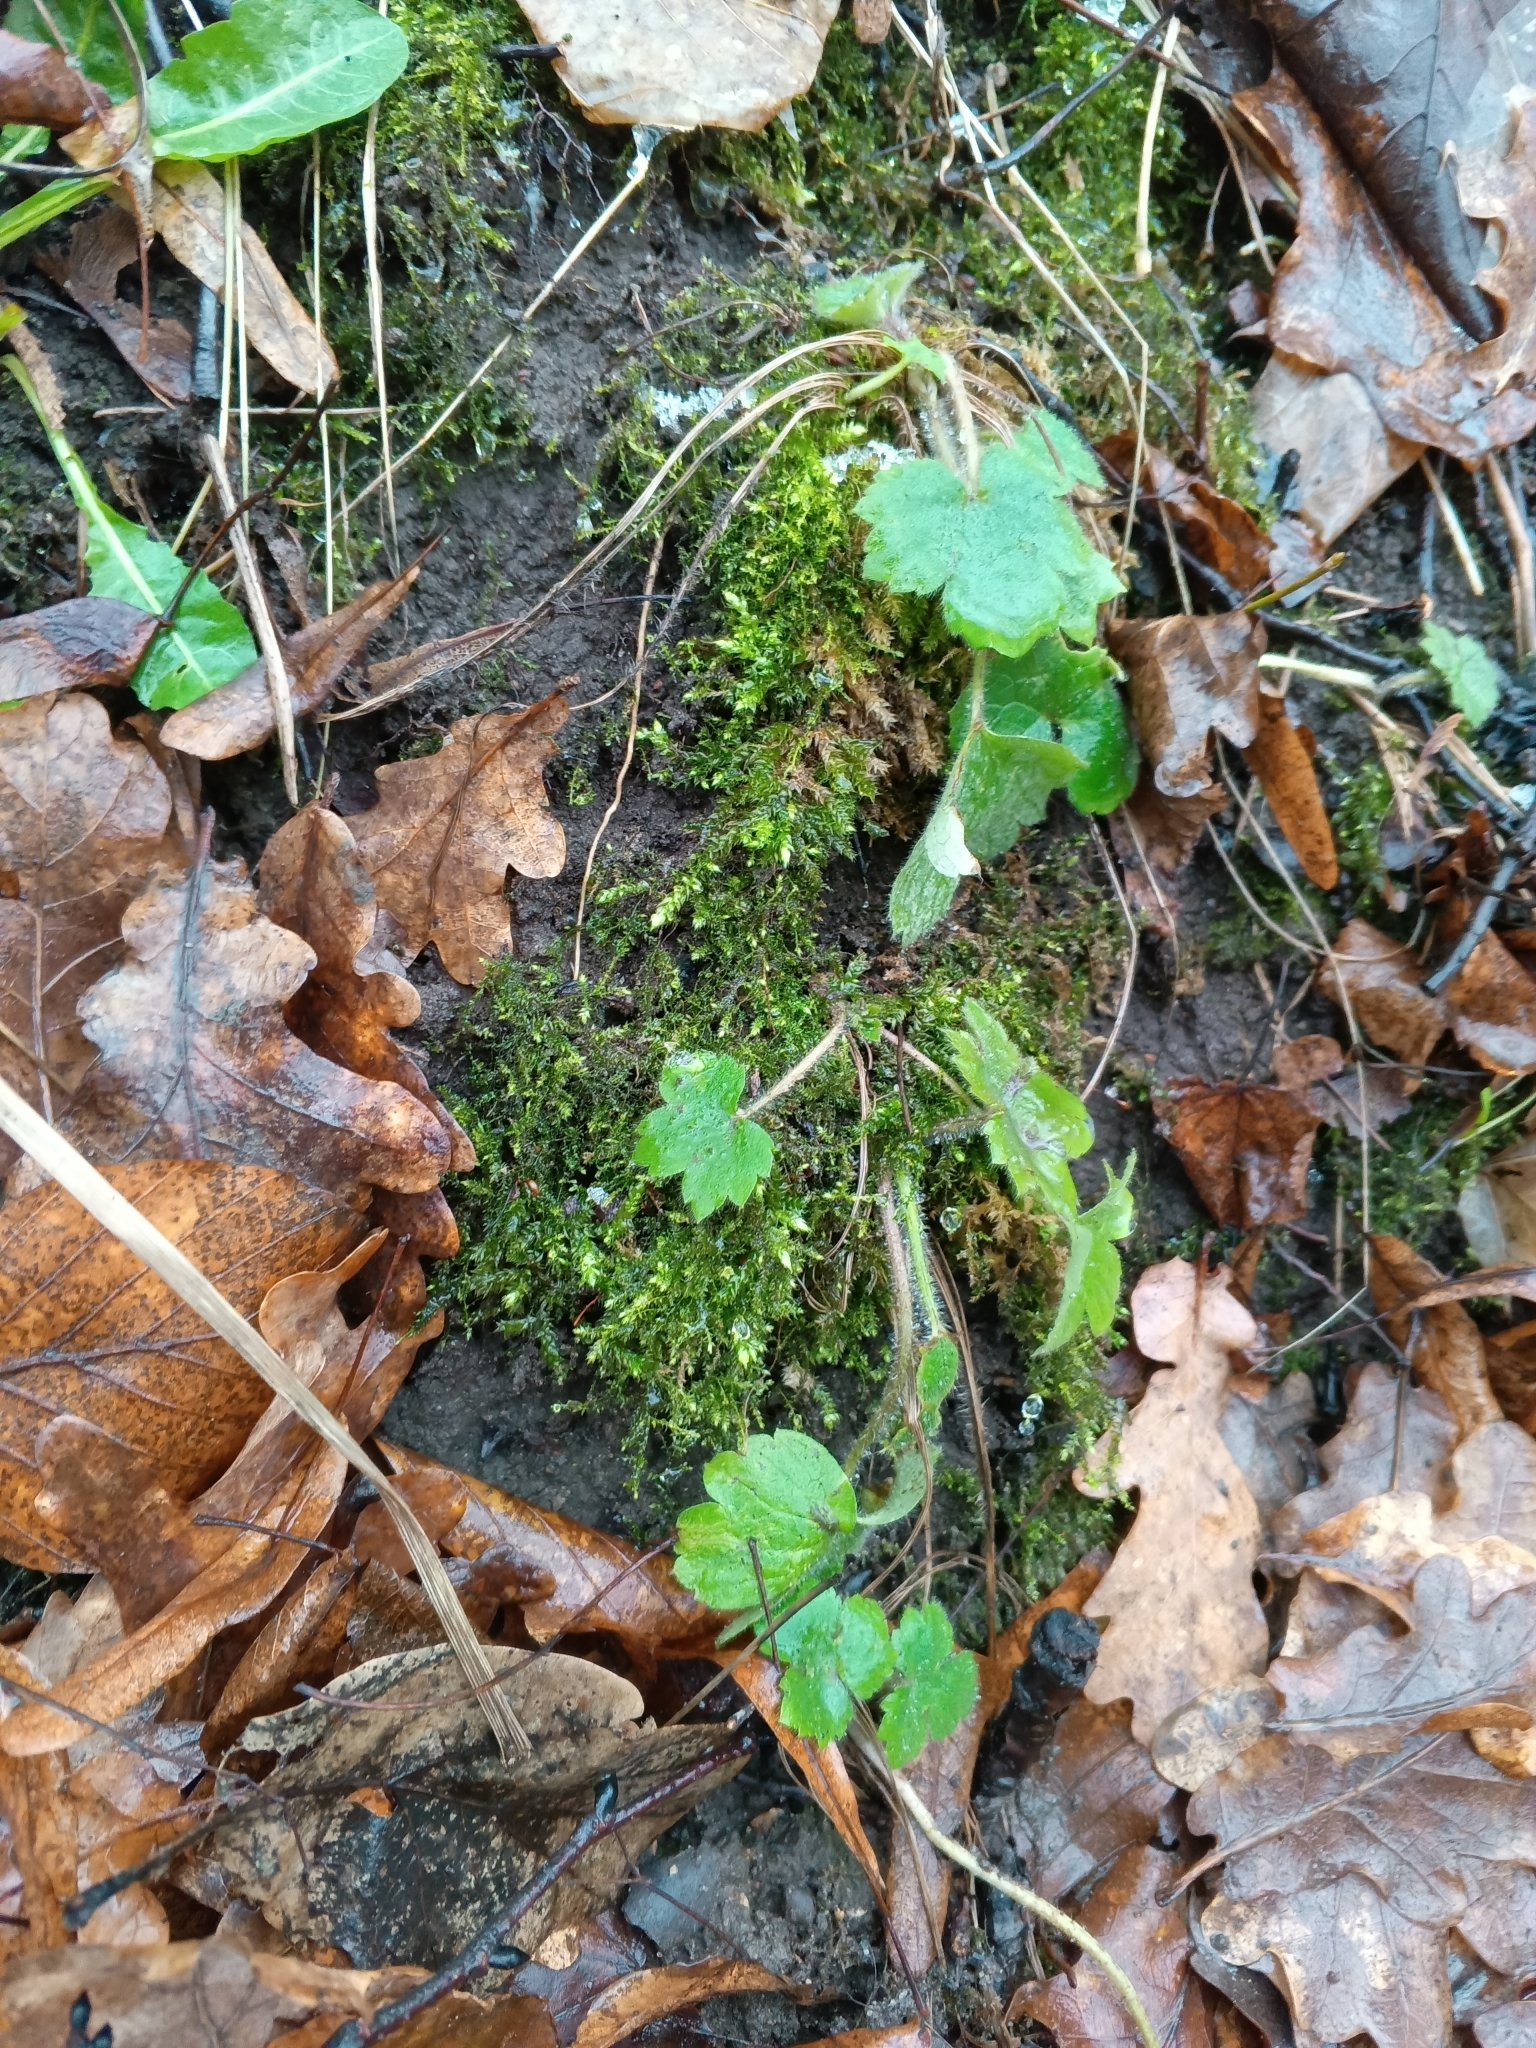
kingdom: Plantae
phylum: Tracheophyta
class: Magnoliopsida
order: Ranunculales
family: Ranunculaceae
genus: Ranunculus
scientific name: Ranunculus lanuginosus
